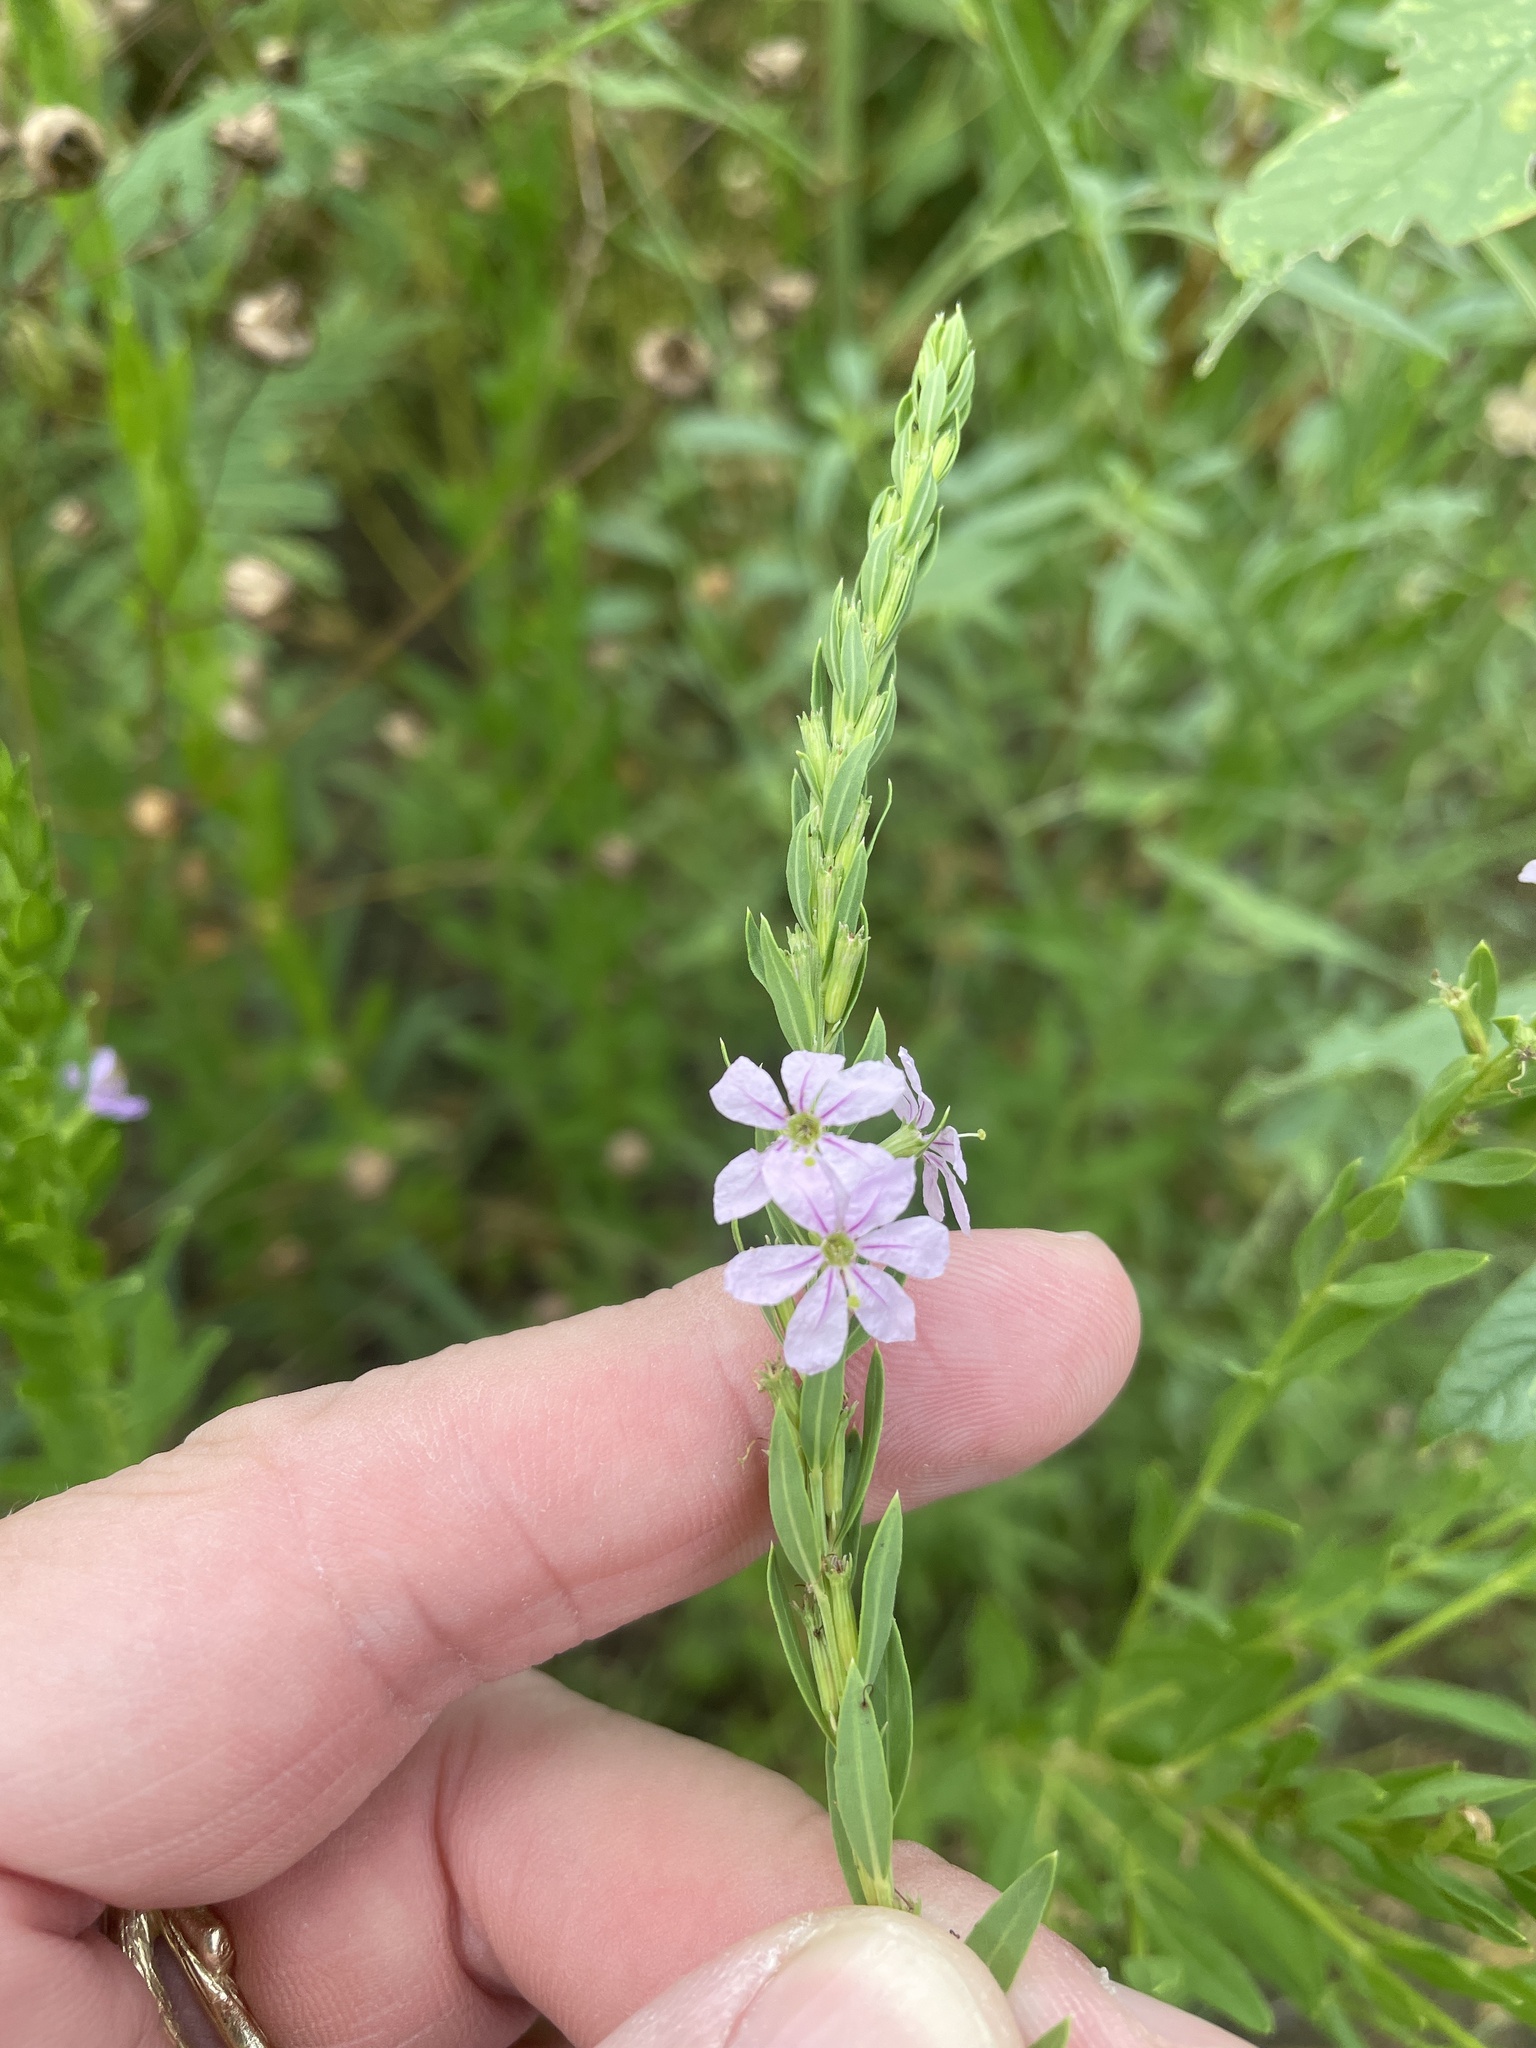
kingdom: Plantae
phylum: Tracheophyta
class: Magnoliopsida
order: Myrtales
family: Lythraceae
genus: Lythrum
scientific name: Lythrum alatum
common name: Winged loosestrife
